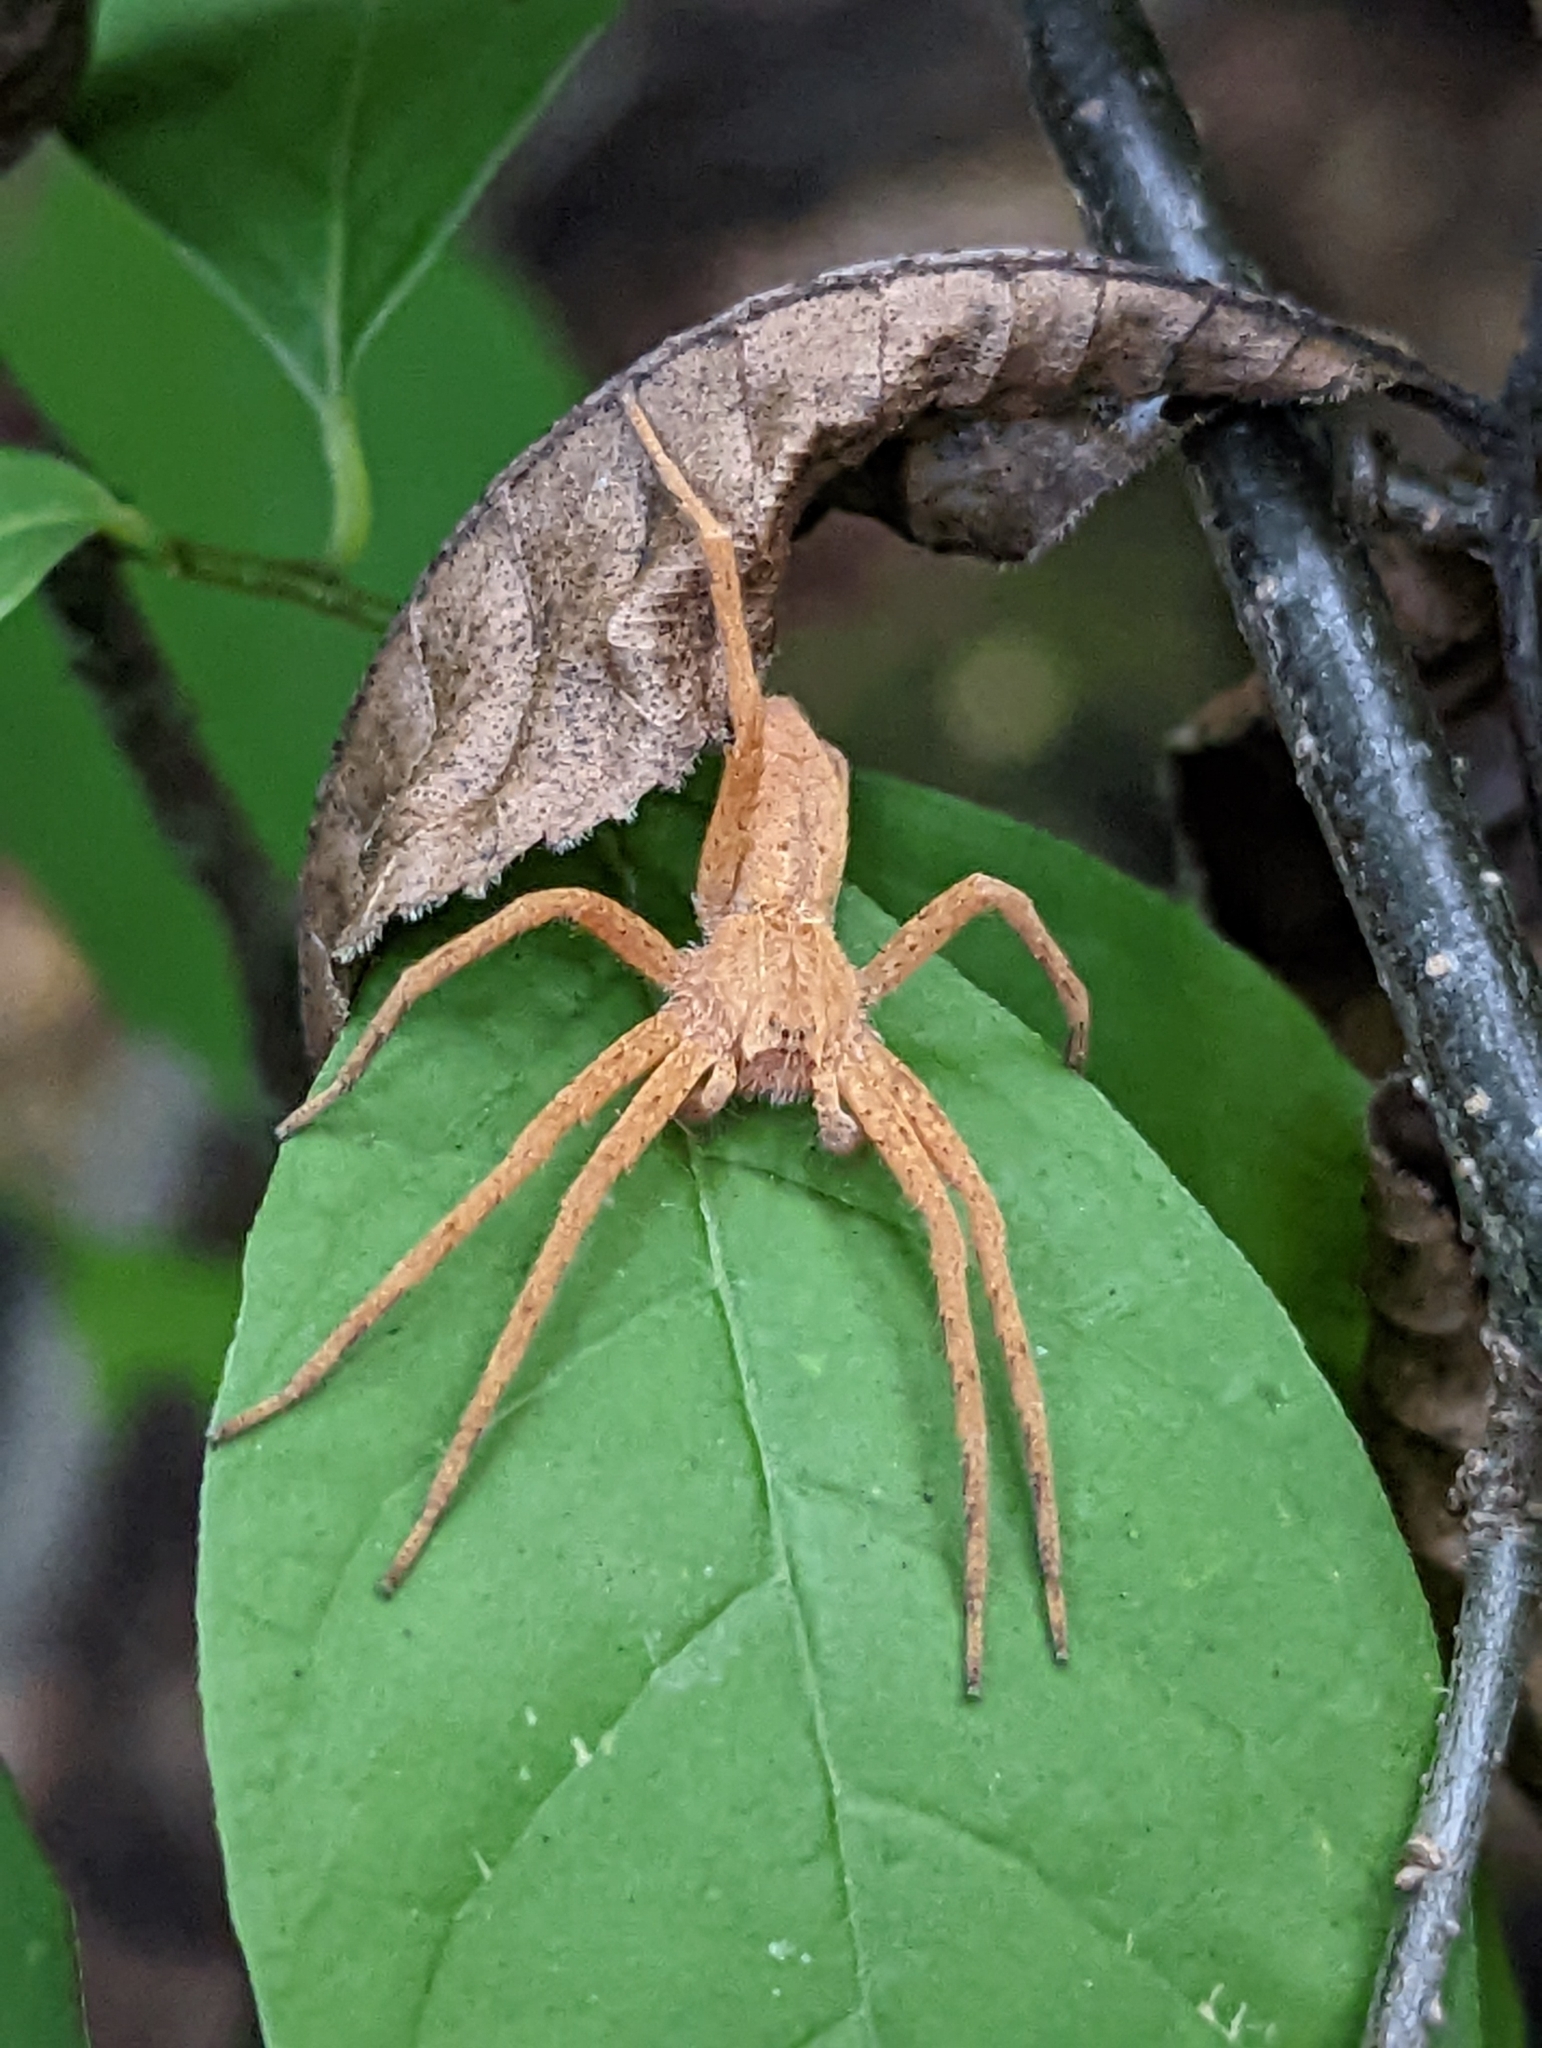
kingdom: Animalia
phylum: Arthropoda
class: Arachnida
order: Araneae
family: Pisauridae
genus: Pisaurina
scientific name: Pisaurina mira
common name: American nursery web spider
